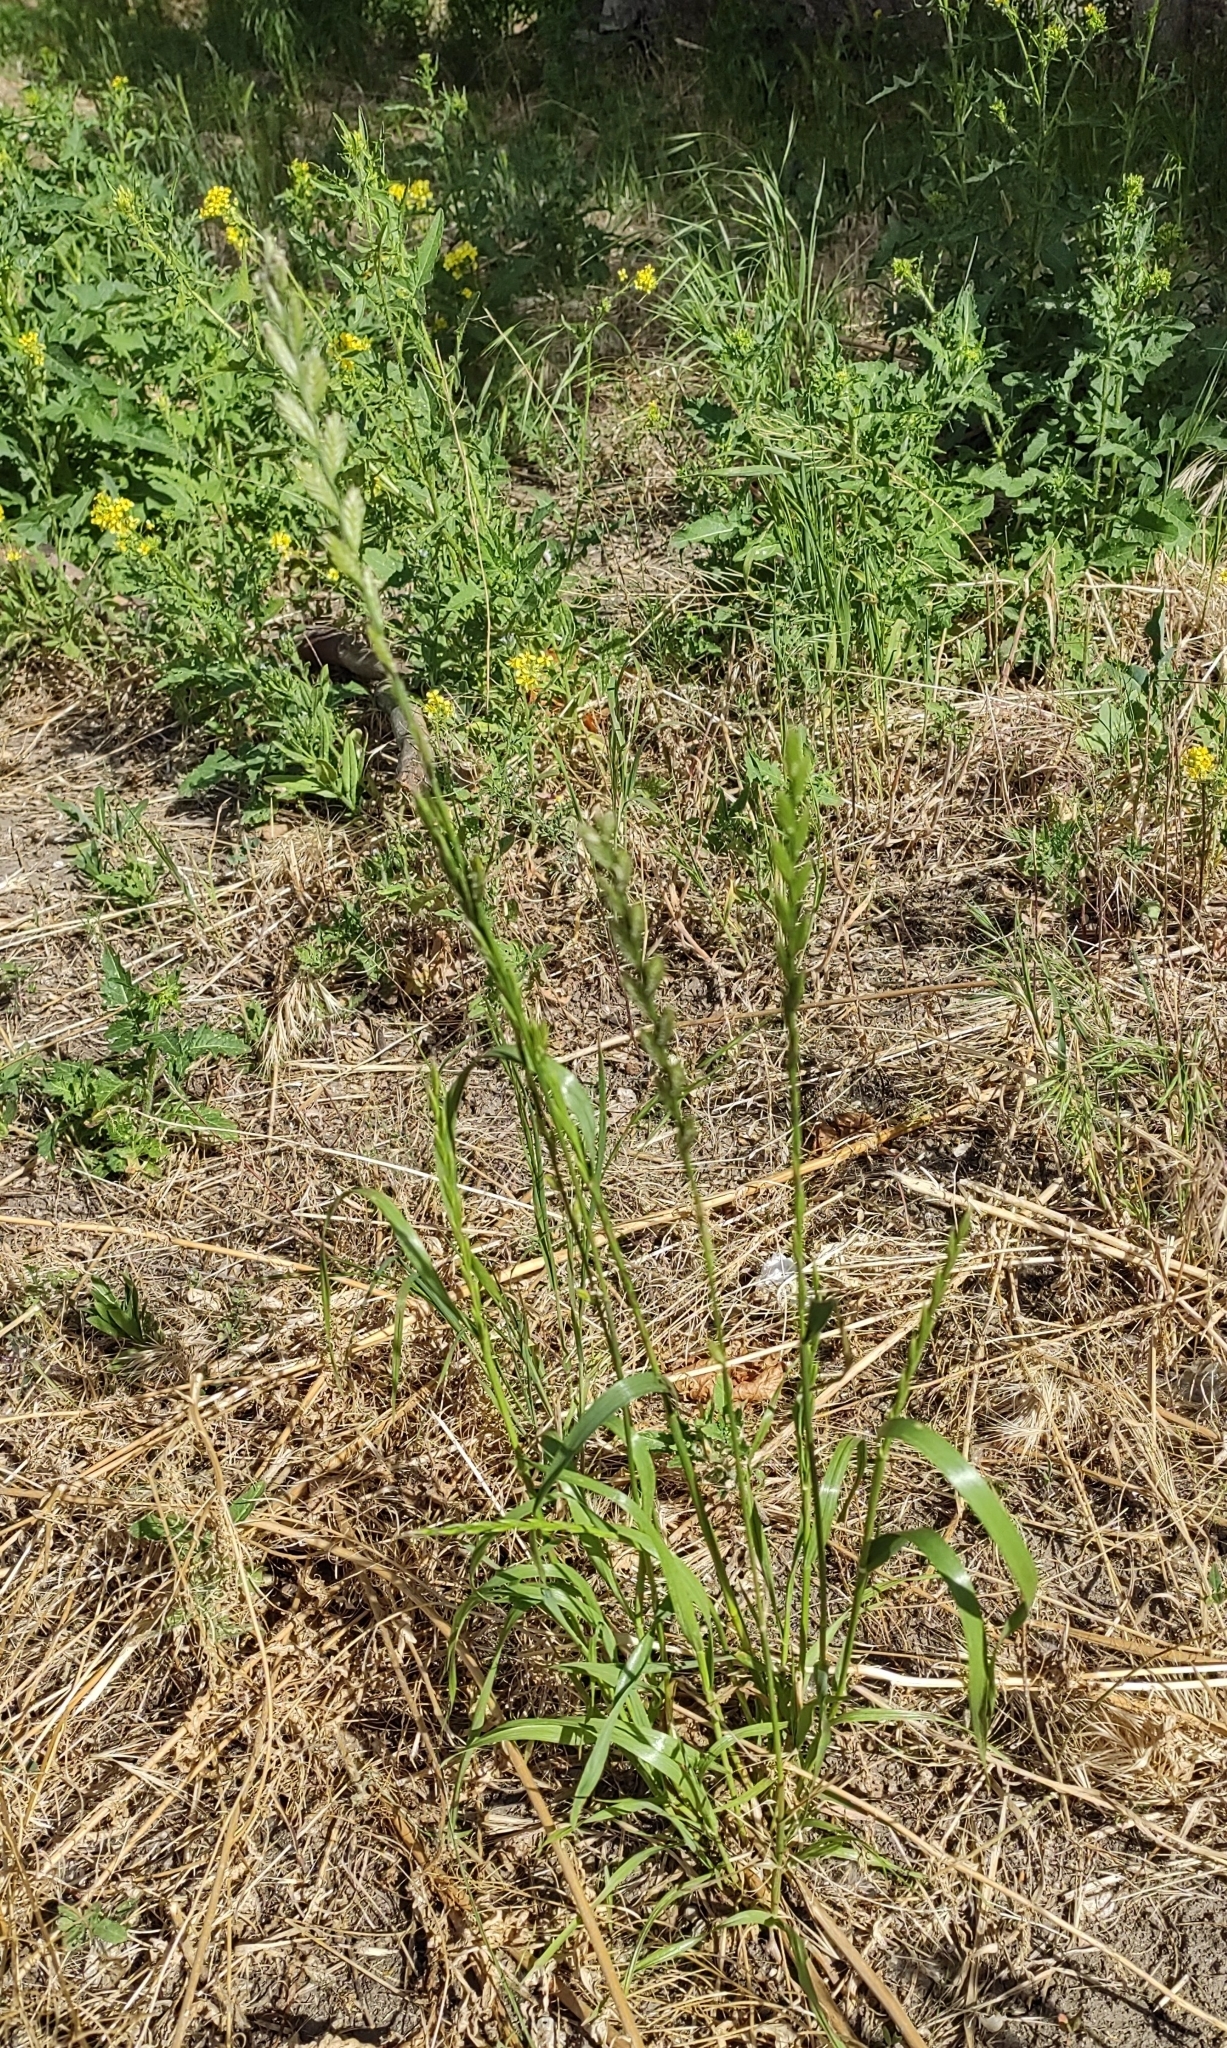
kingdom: Plantae
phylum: Tracheophyta
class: Liliopsida
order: Poales
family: Poaceae
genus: Lolium
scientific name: Lolium multiflorum
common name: Annual ryegrass
